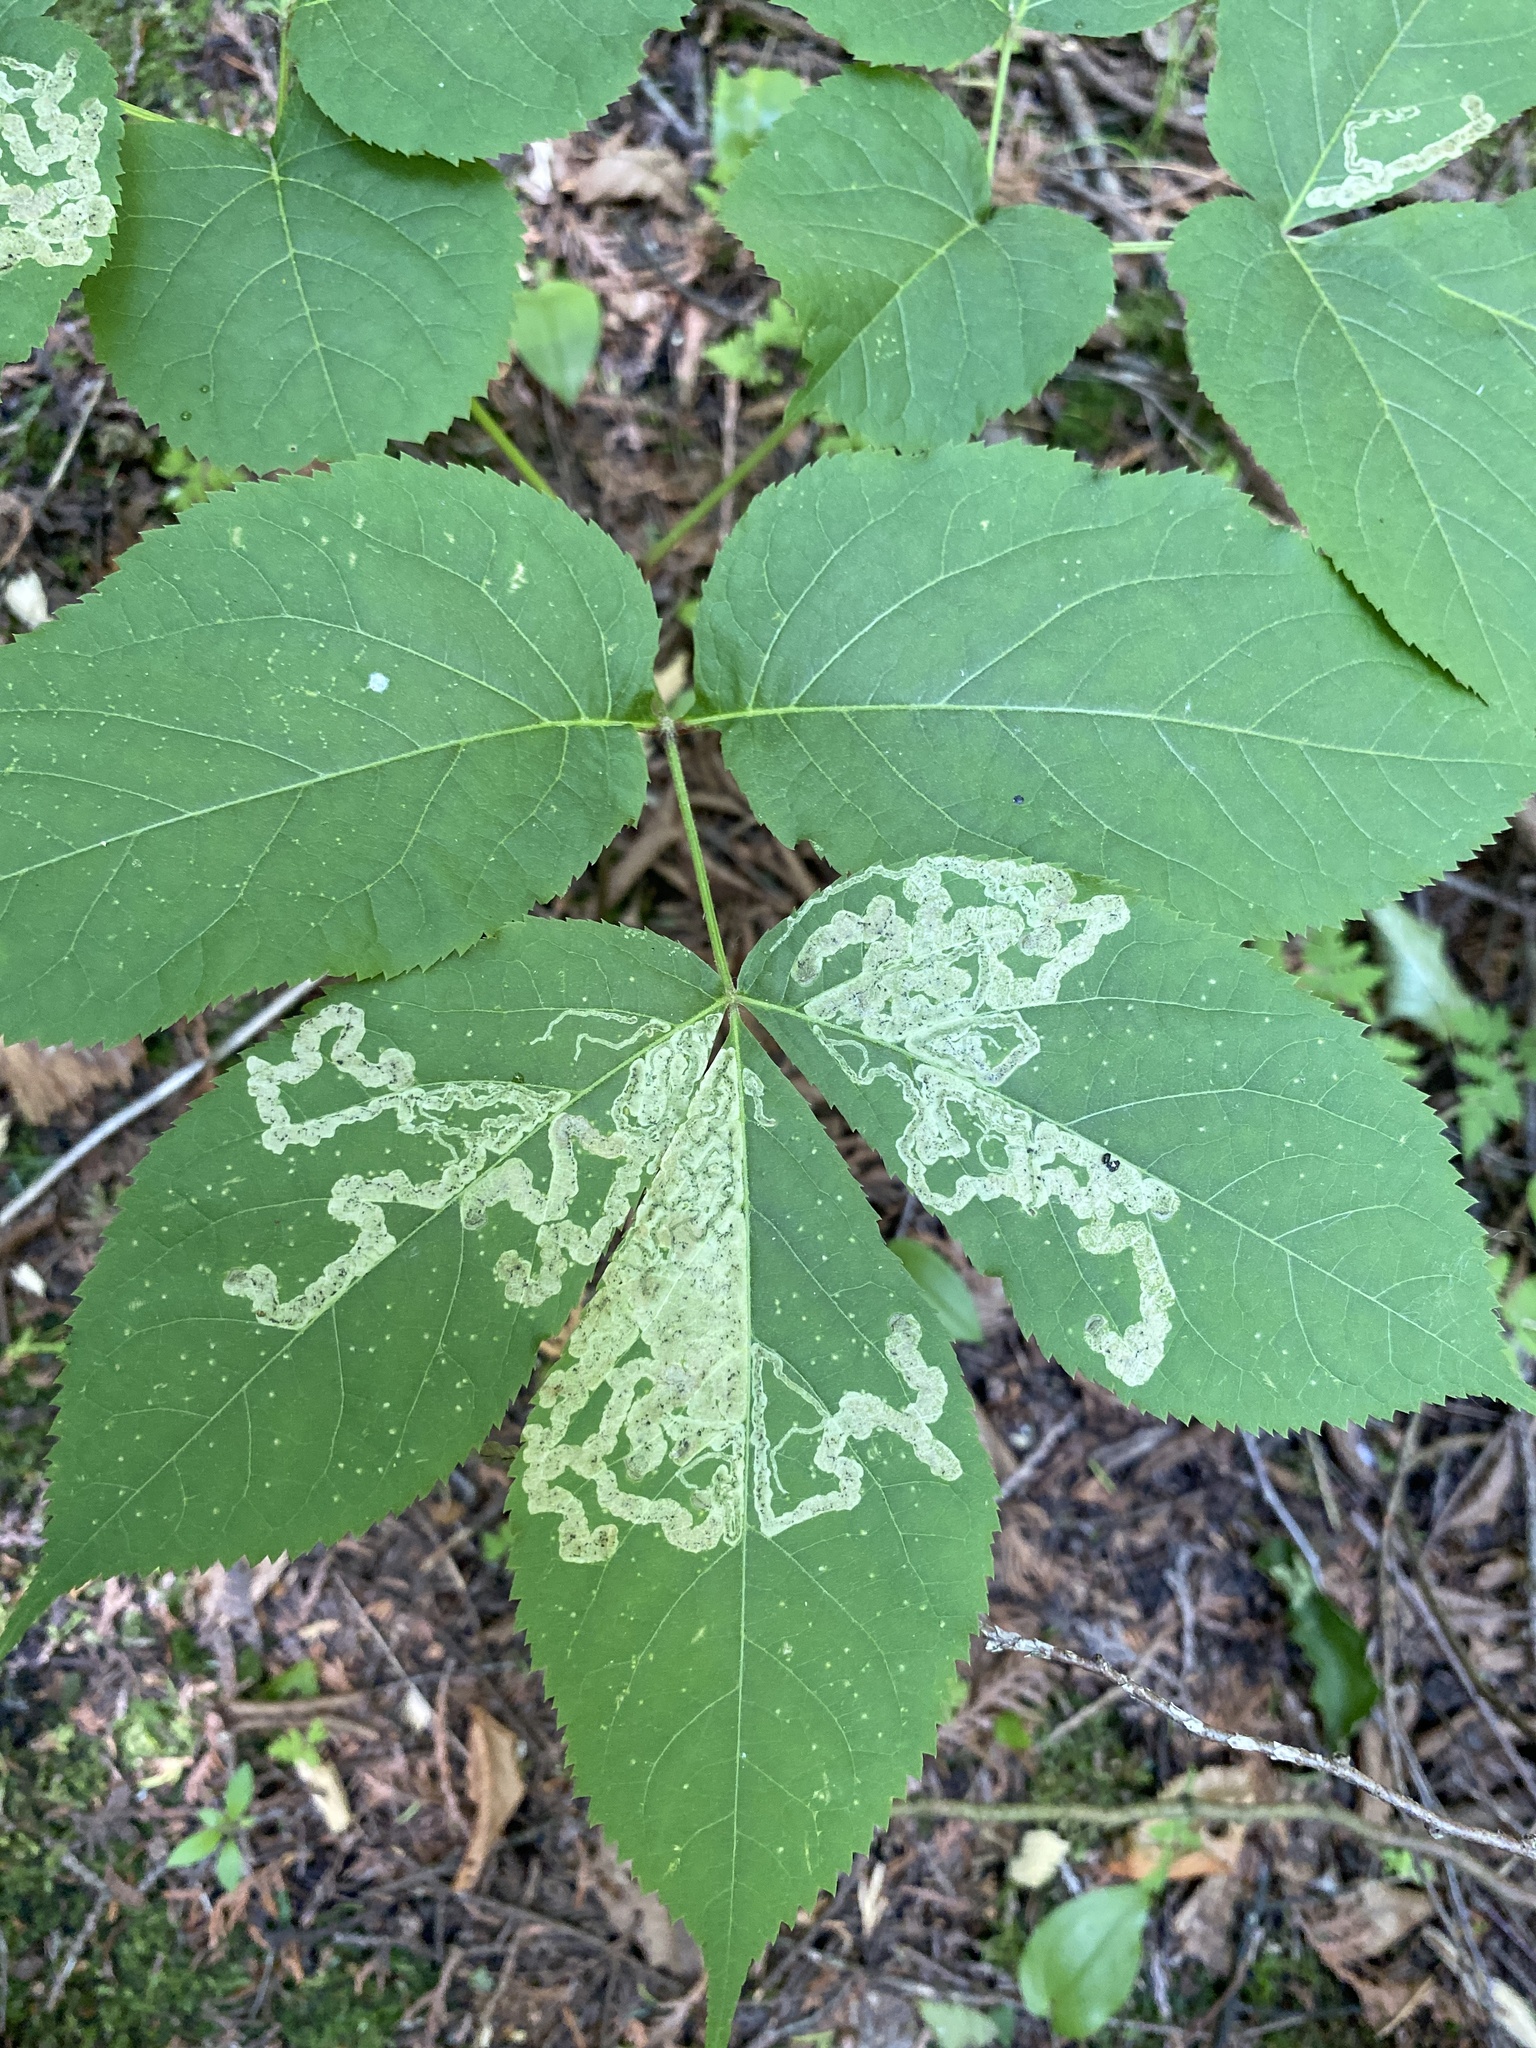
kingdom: Animalia
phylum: Arthropoda
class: Insecta
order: Diptera
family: Agromyzidae
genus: Phytomyza
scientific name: Phytomyza aralivora
